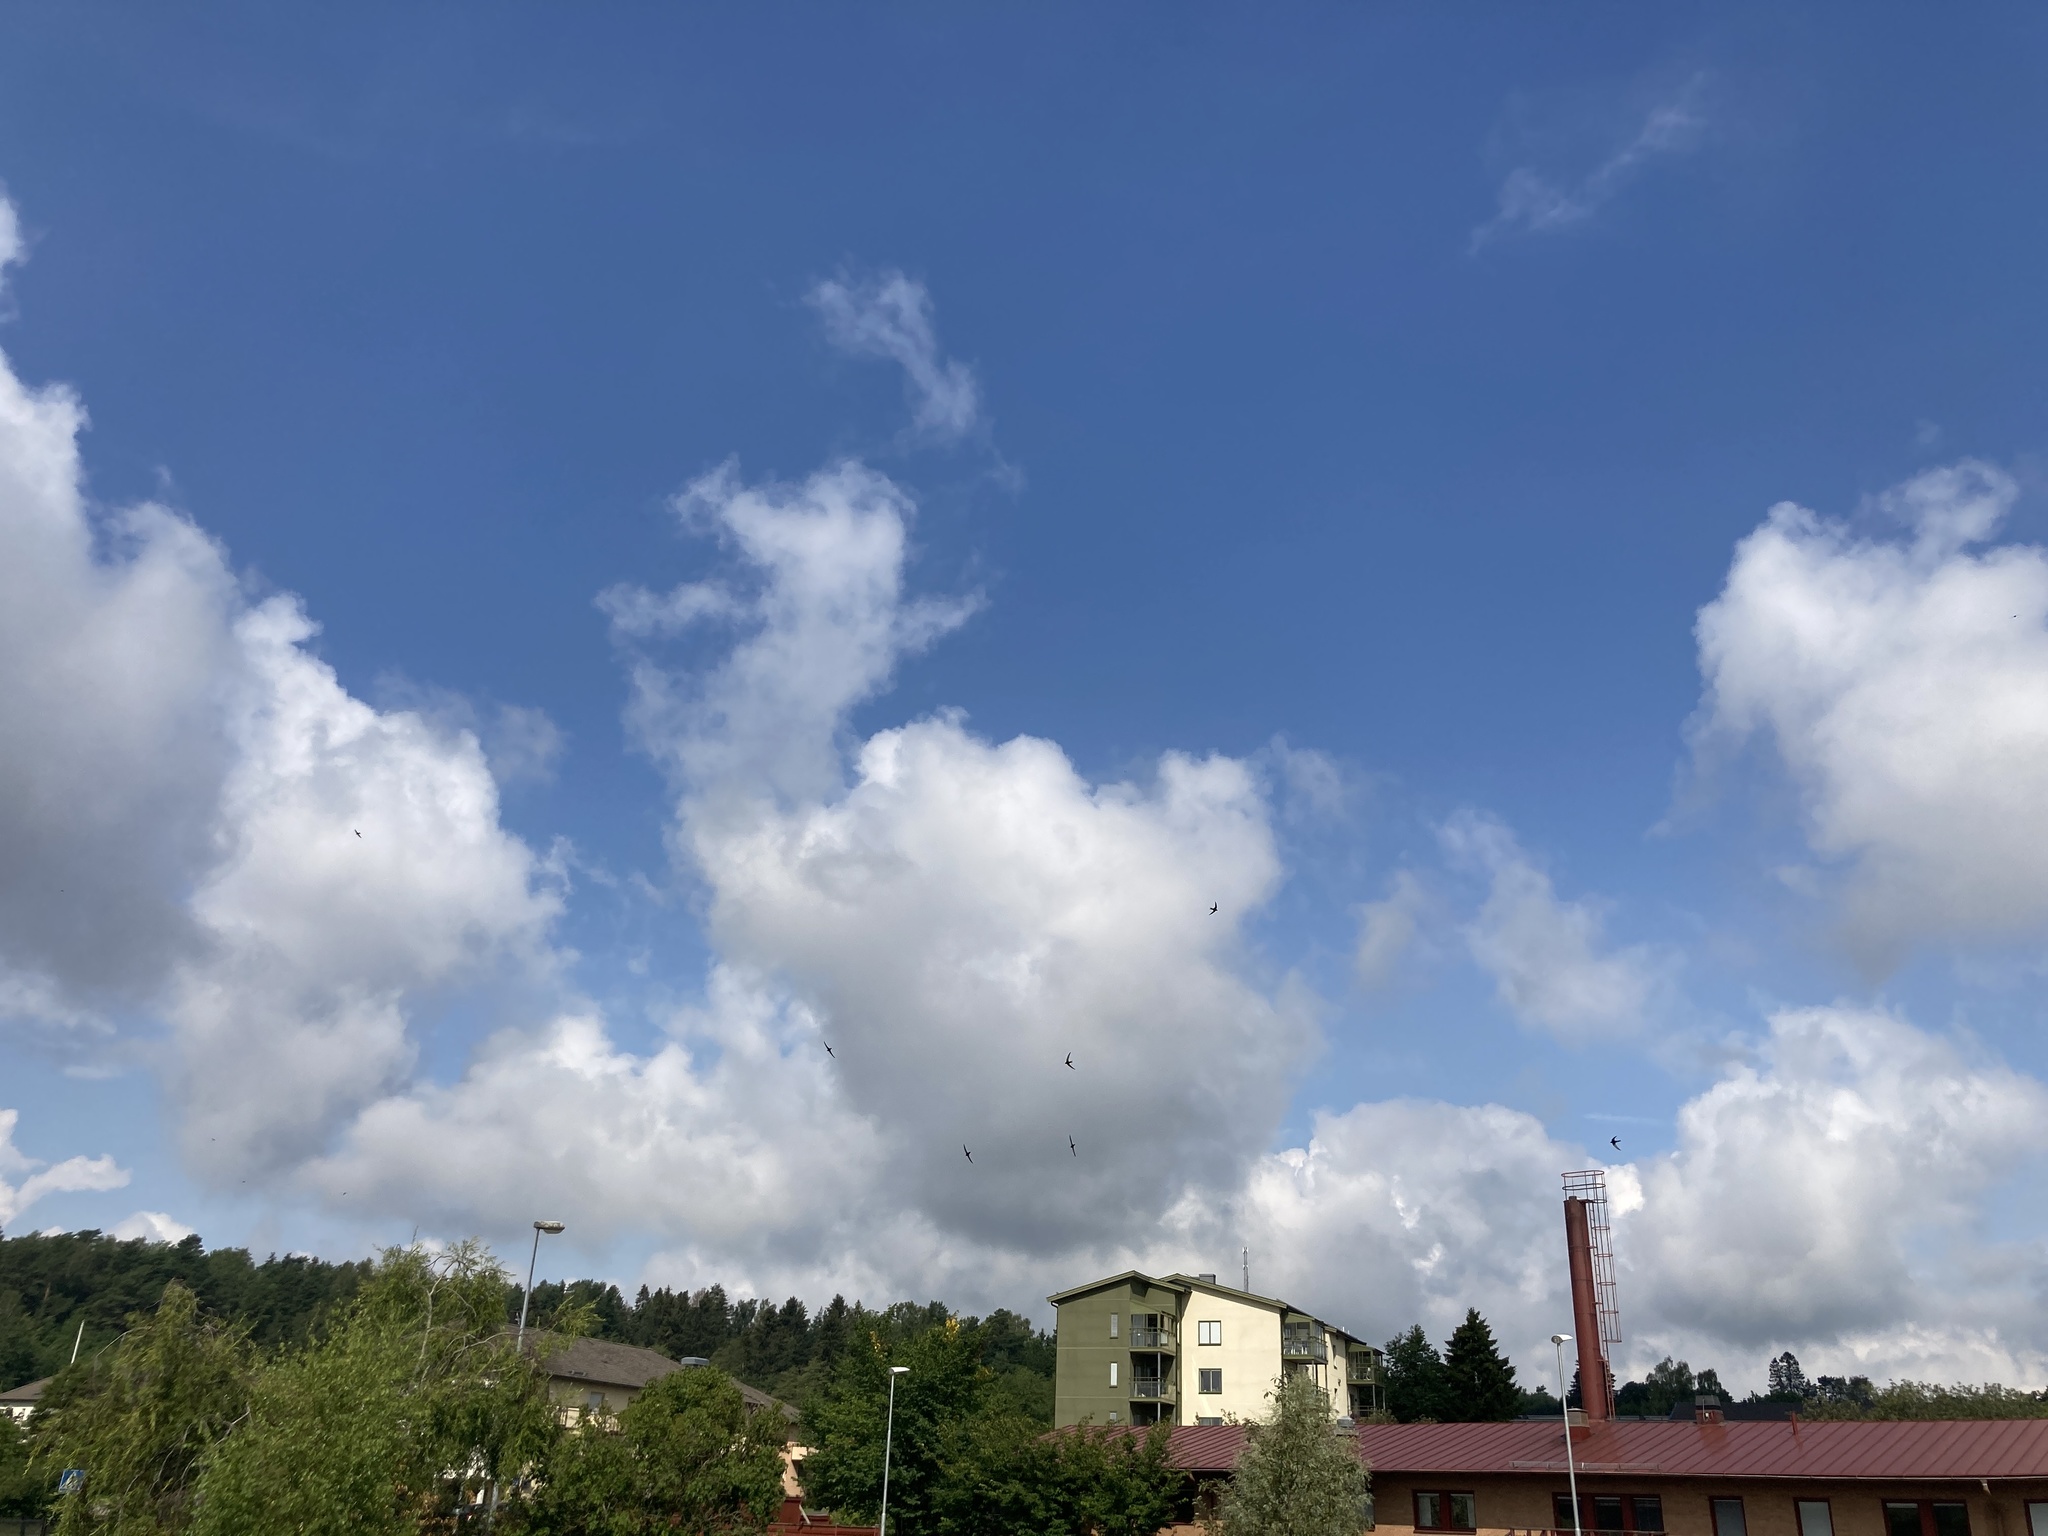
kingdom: Animalia
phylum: Chordata
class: Aves
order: Apodiformes
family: Apodidae
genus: Apus
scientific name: Apus apus
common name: Common swift
